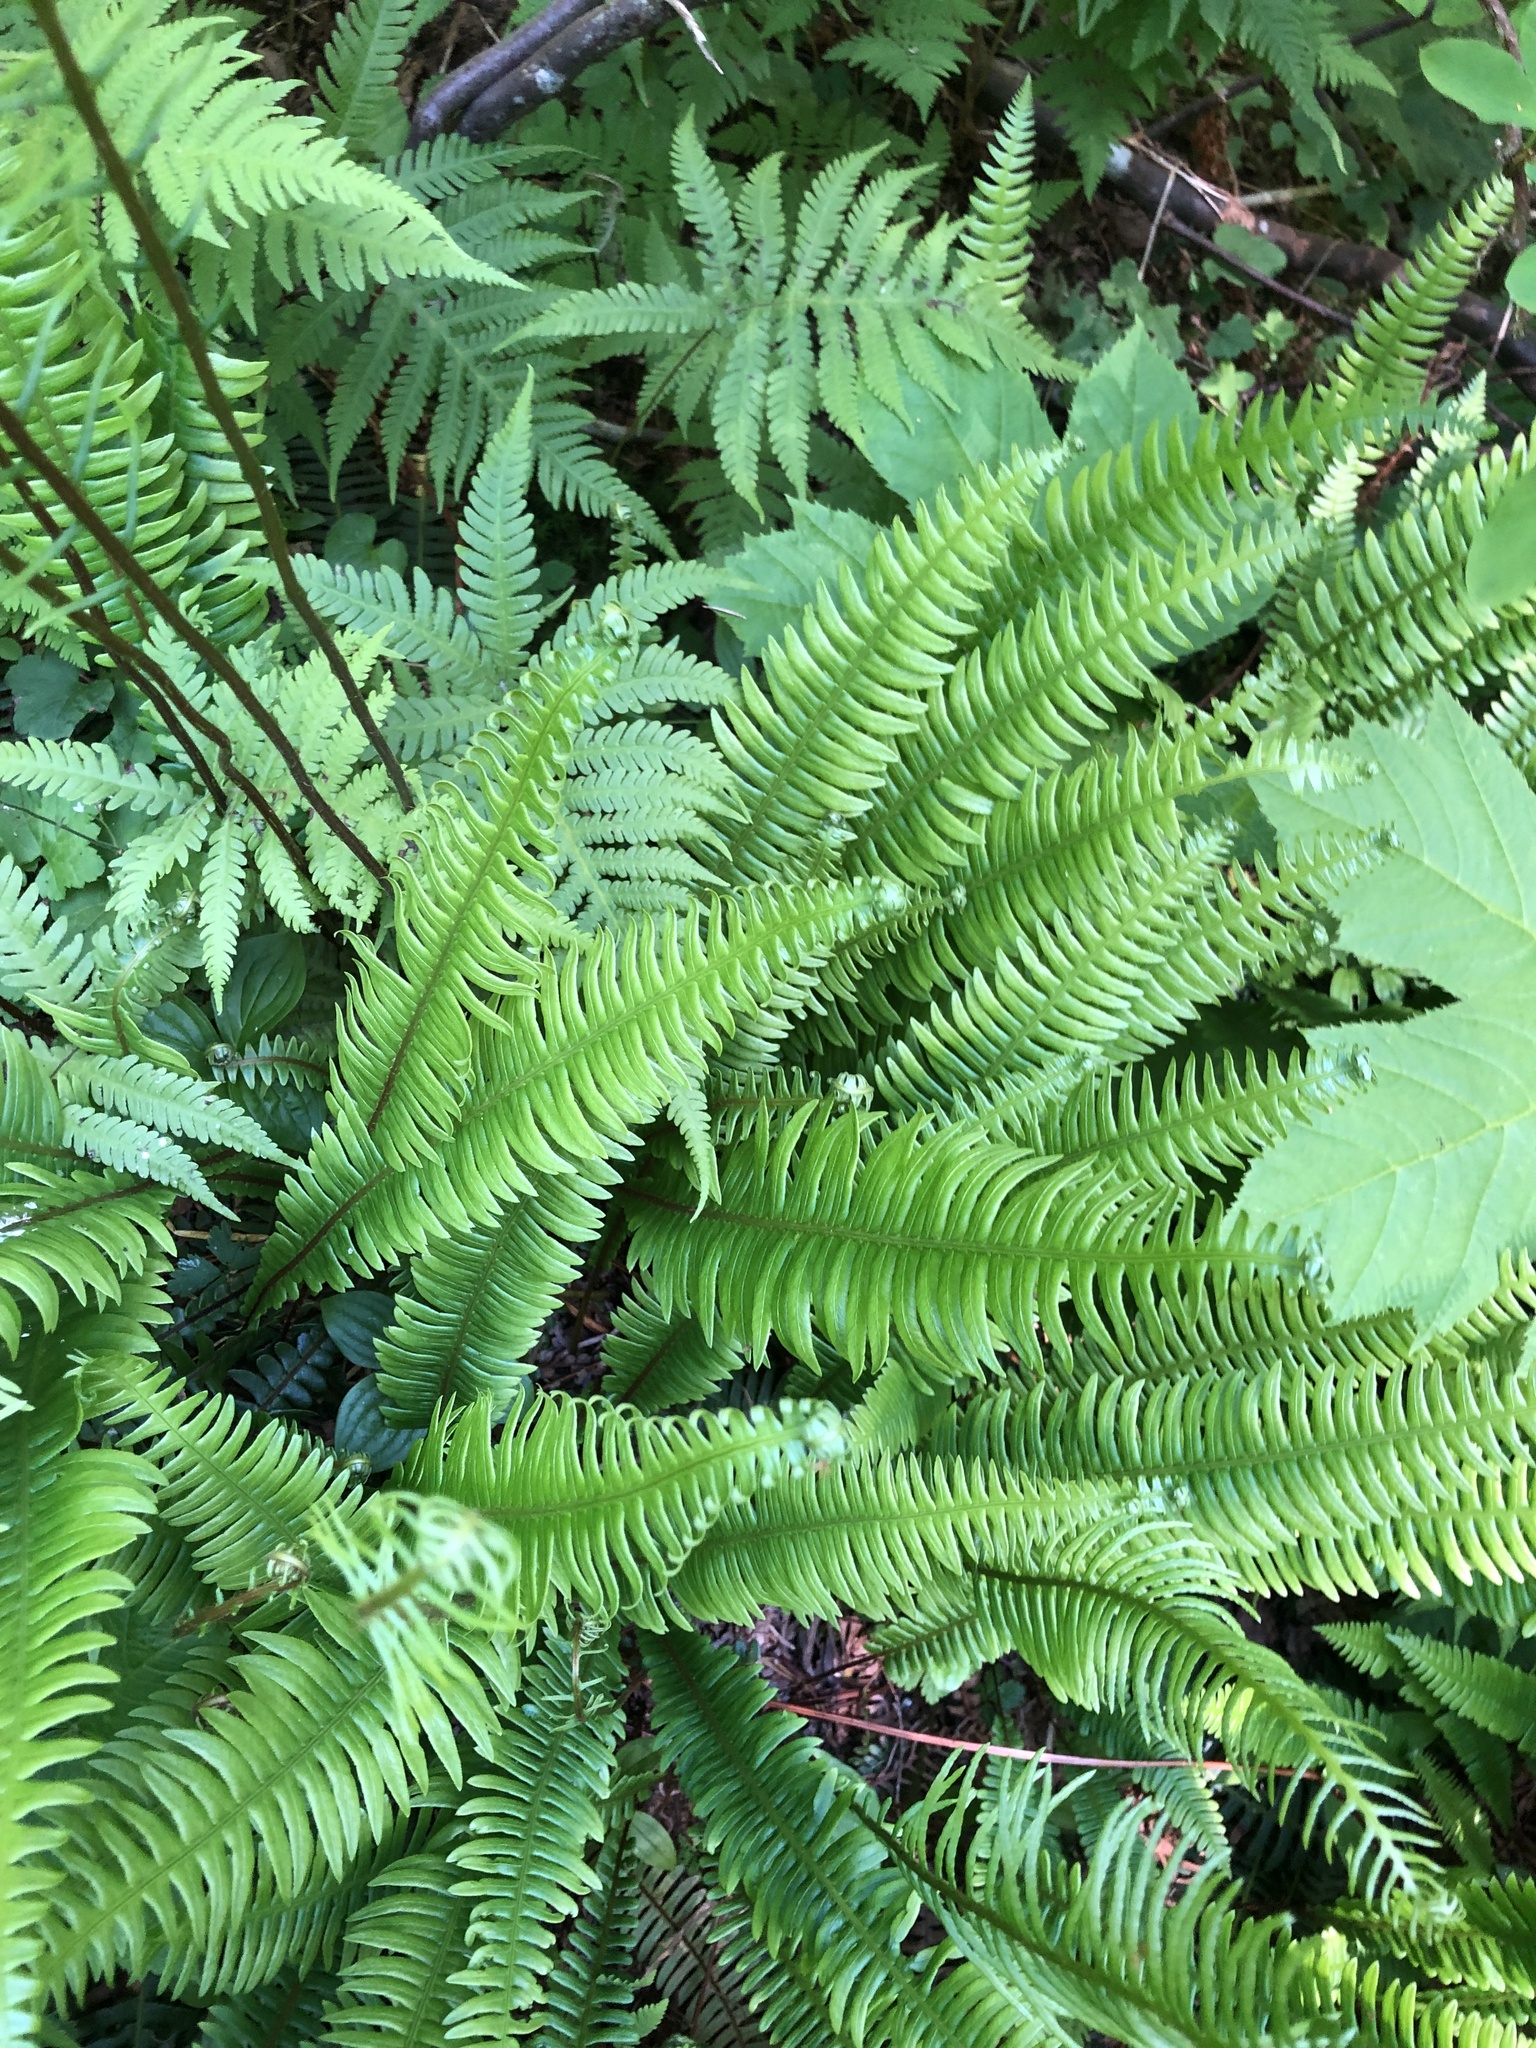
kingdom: Plantae
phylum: Tracheophyta
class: Polypodiopsida
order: Polypodiales
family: Blechnaceae
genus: Struthiopteris
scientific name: Struthiopteris spicant
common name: Deer fern
